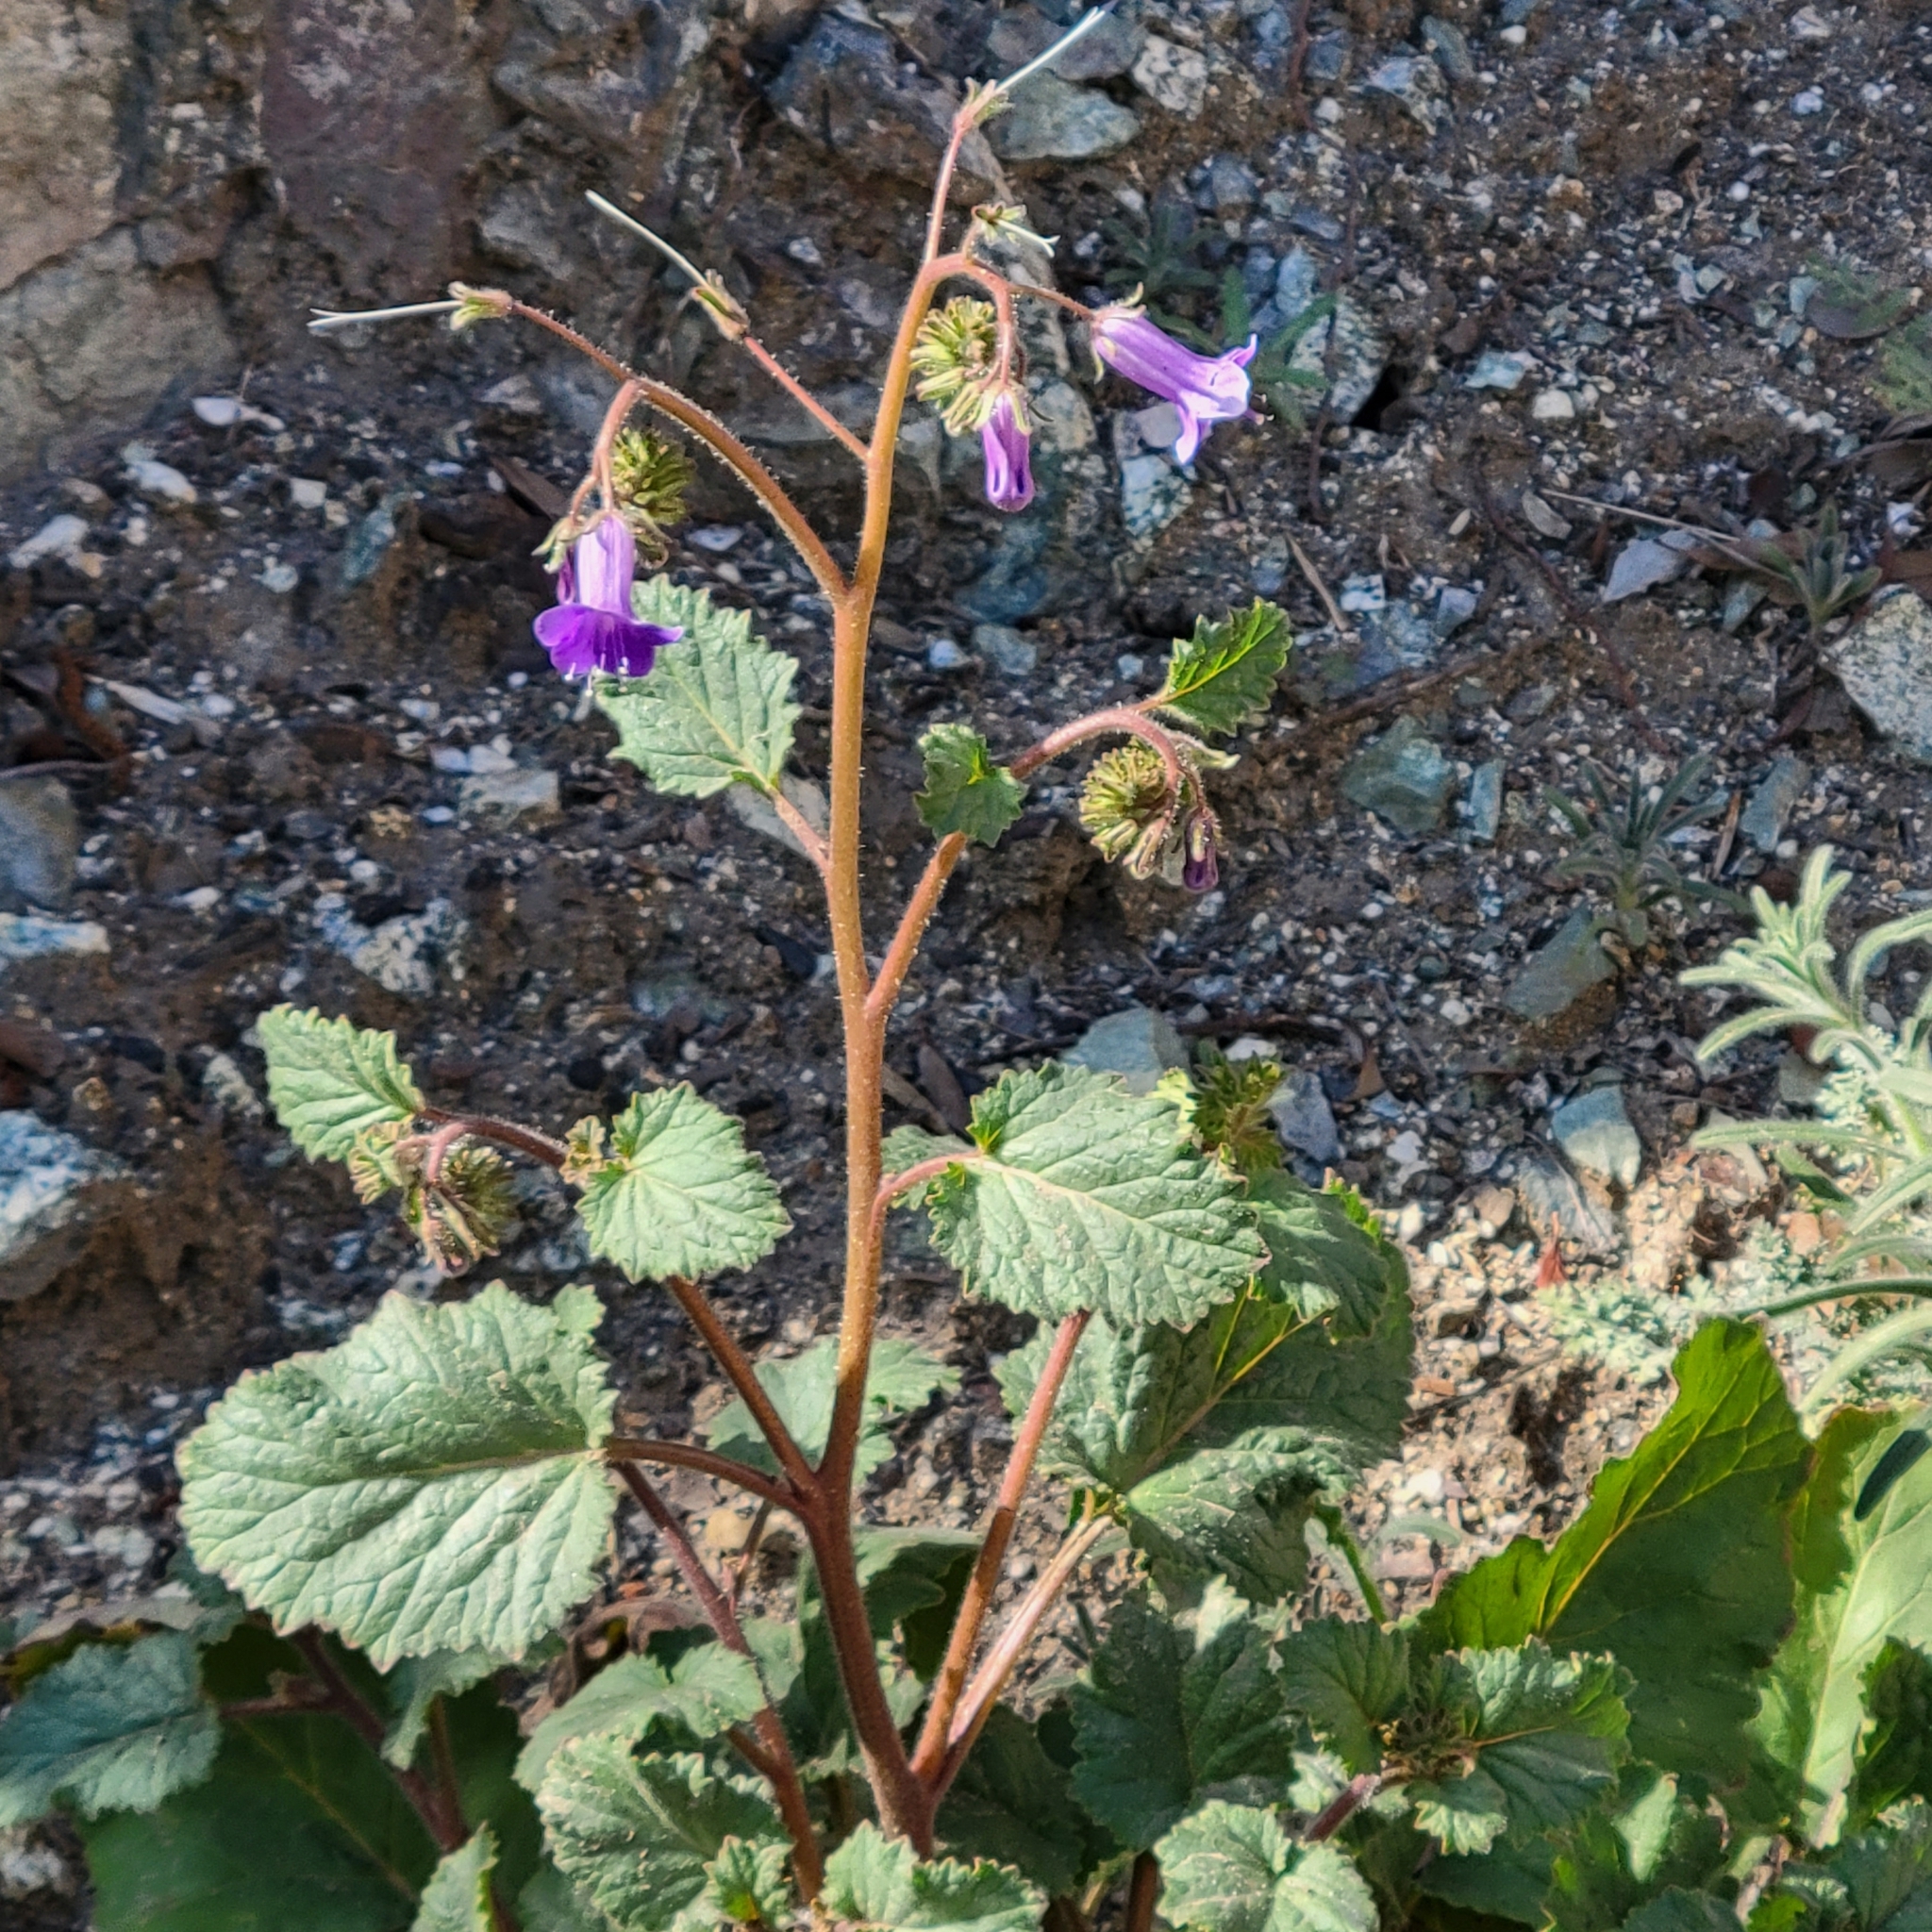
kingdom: Plantae
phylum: Tracheophyta
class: Magnoliopsida
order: Boraginales
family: Hydrophyllaceae
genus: Phacelia
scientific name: Phacelia minor
